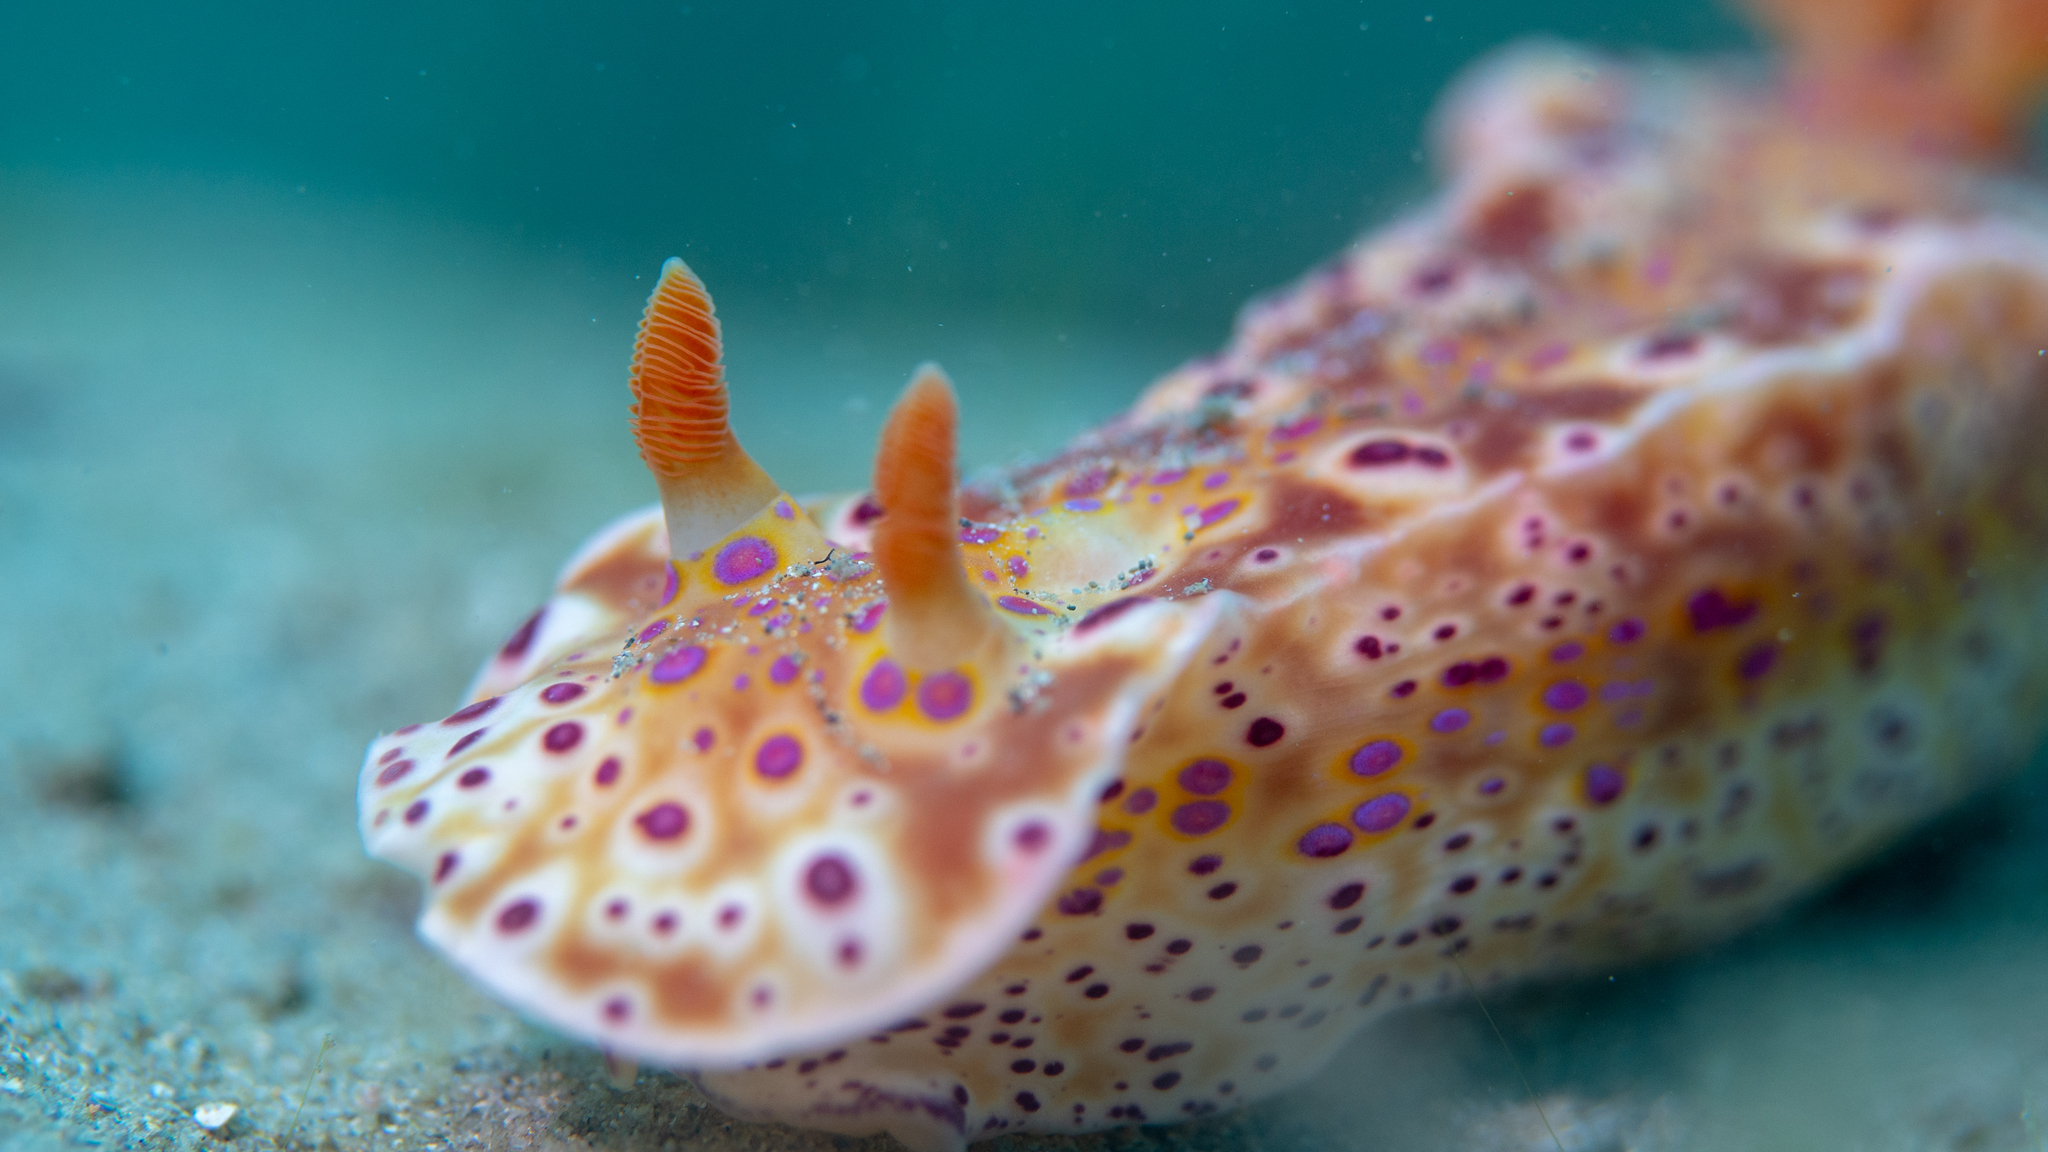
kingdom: Animalia
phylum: Mollusca
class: Gastropoda
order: Nudibranchia
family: Chromodorididae
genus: Ceratosoma
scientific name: Ceratosoma brevicaudatum
